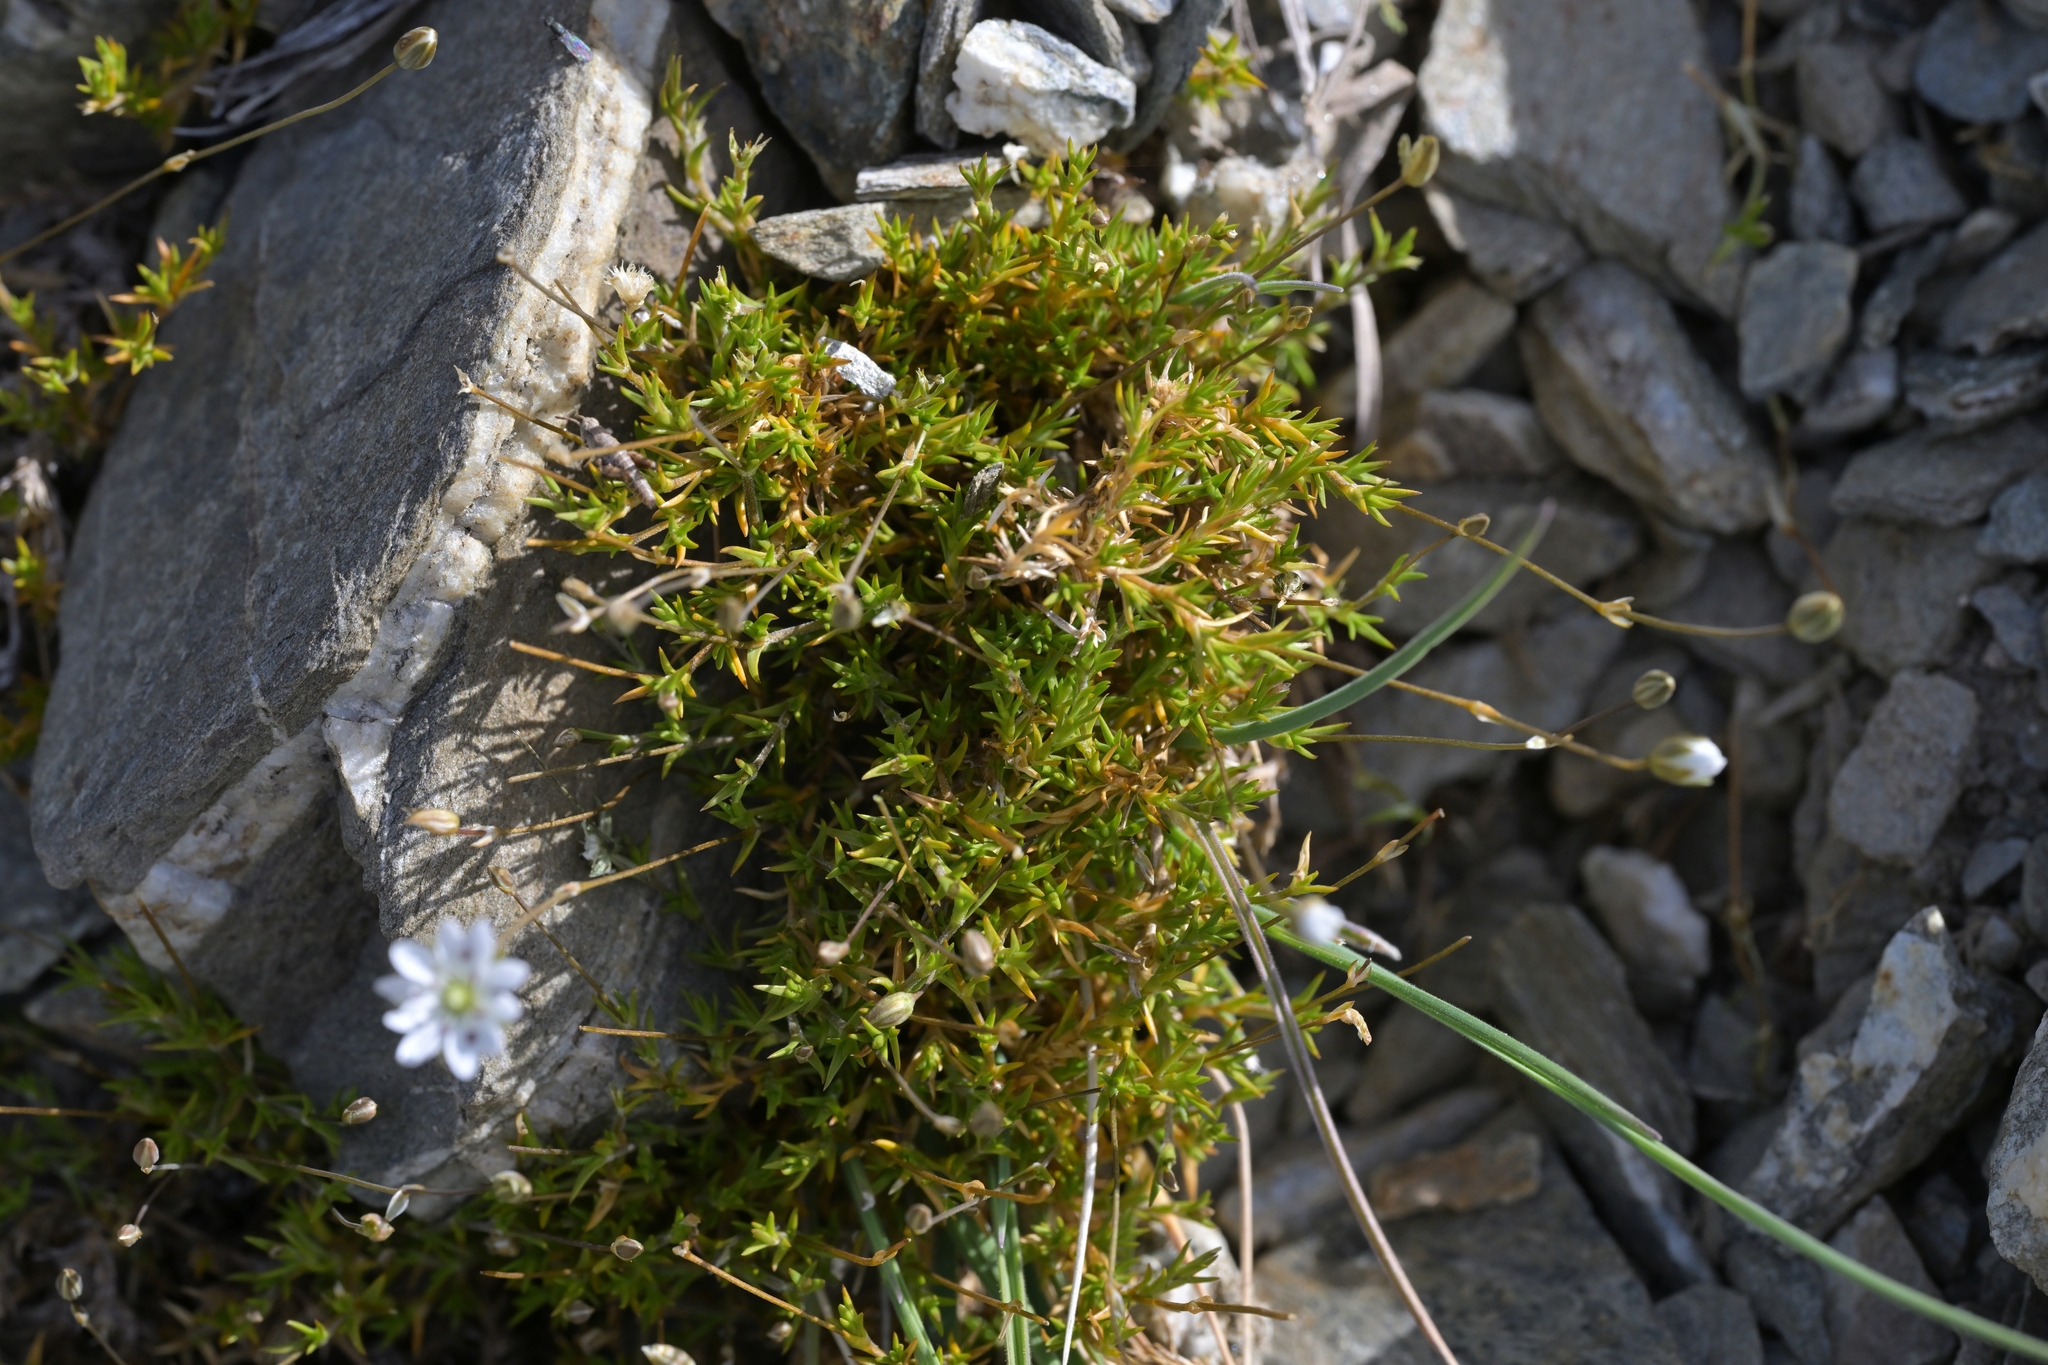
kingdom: Plantae
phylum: Tracheophyta
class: Magnoliopsida
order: Caryophyllales
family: Caryophyllaceae
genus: Stellaria
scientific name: Stellaria gracilenta
